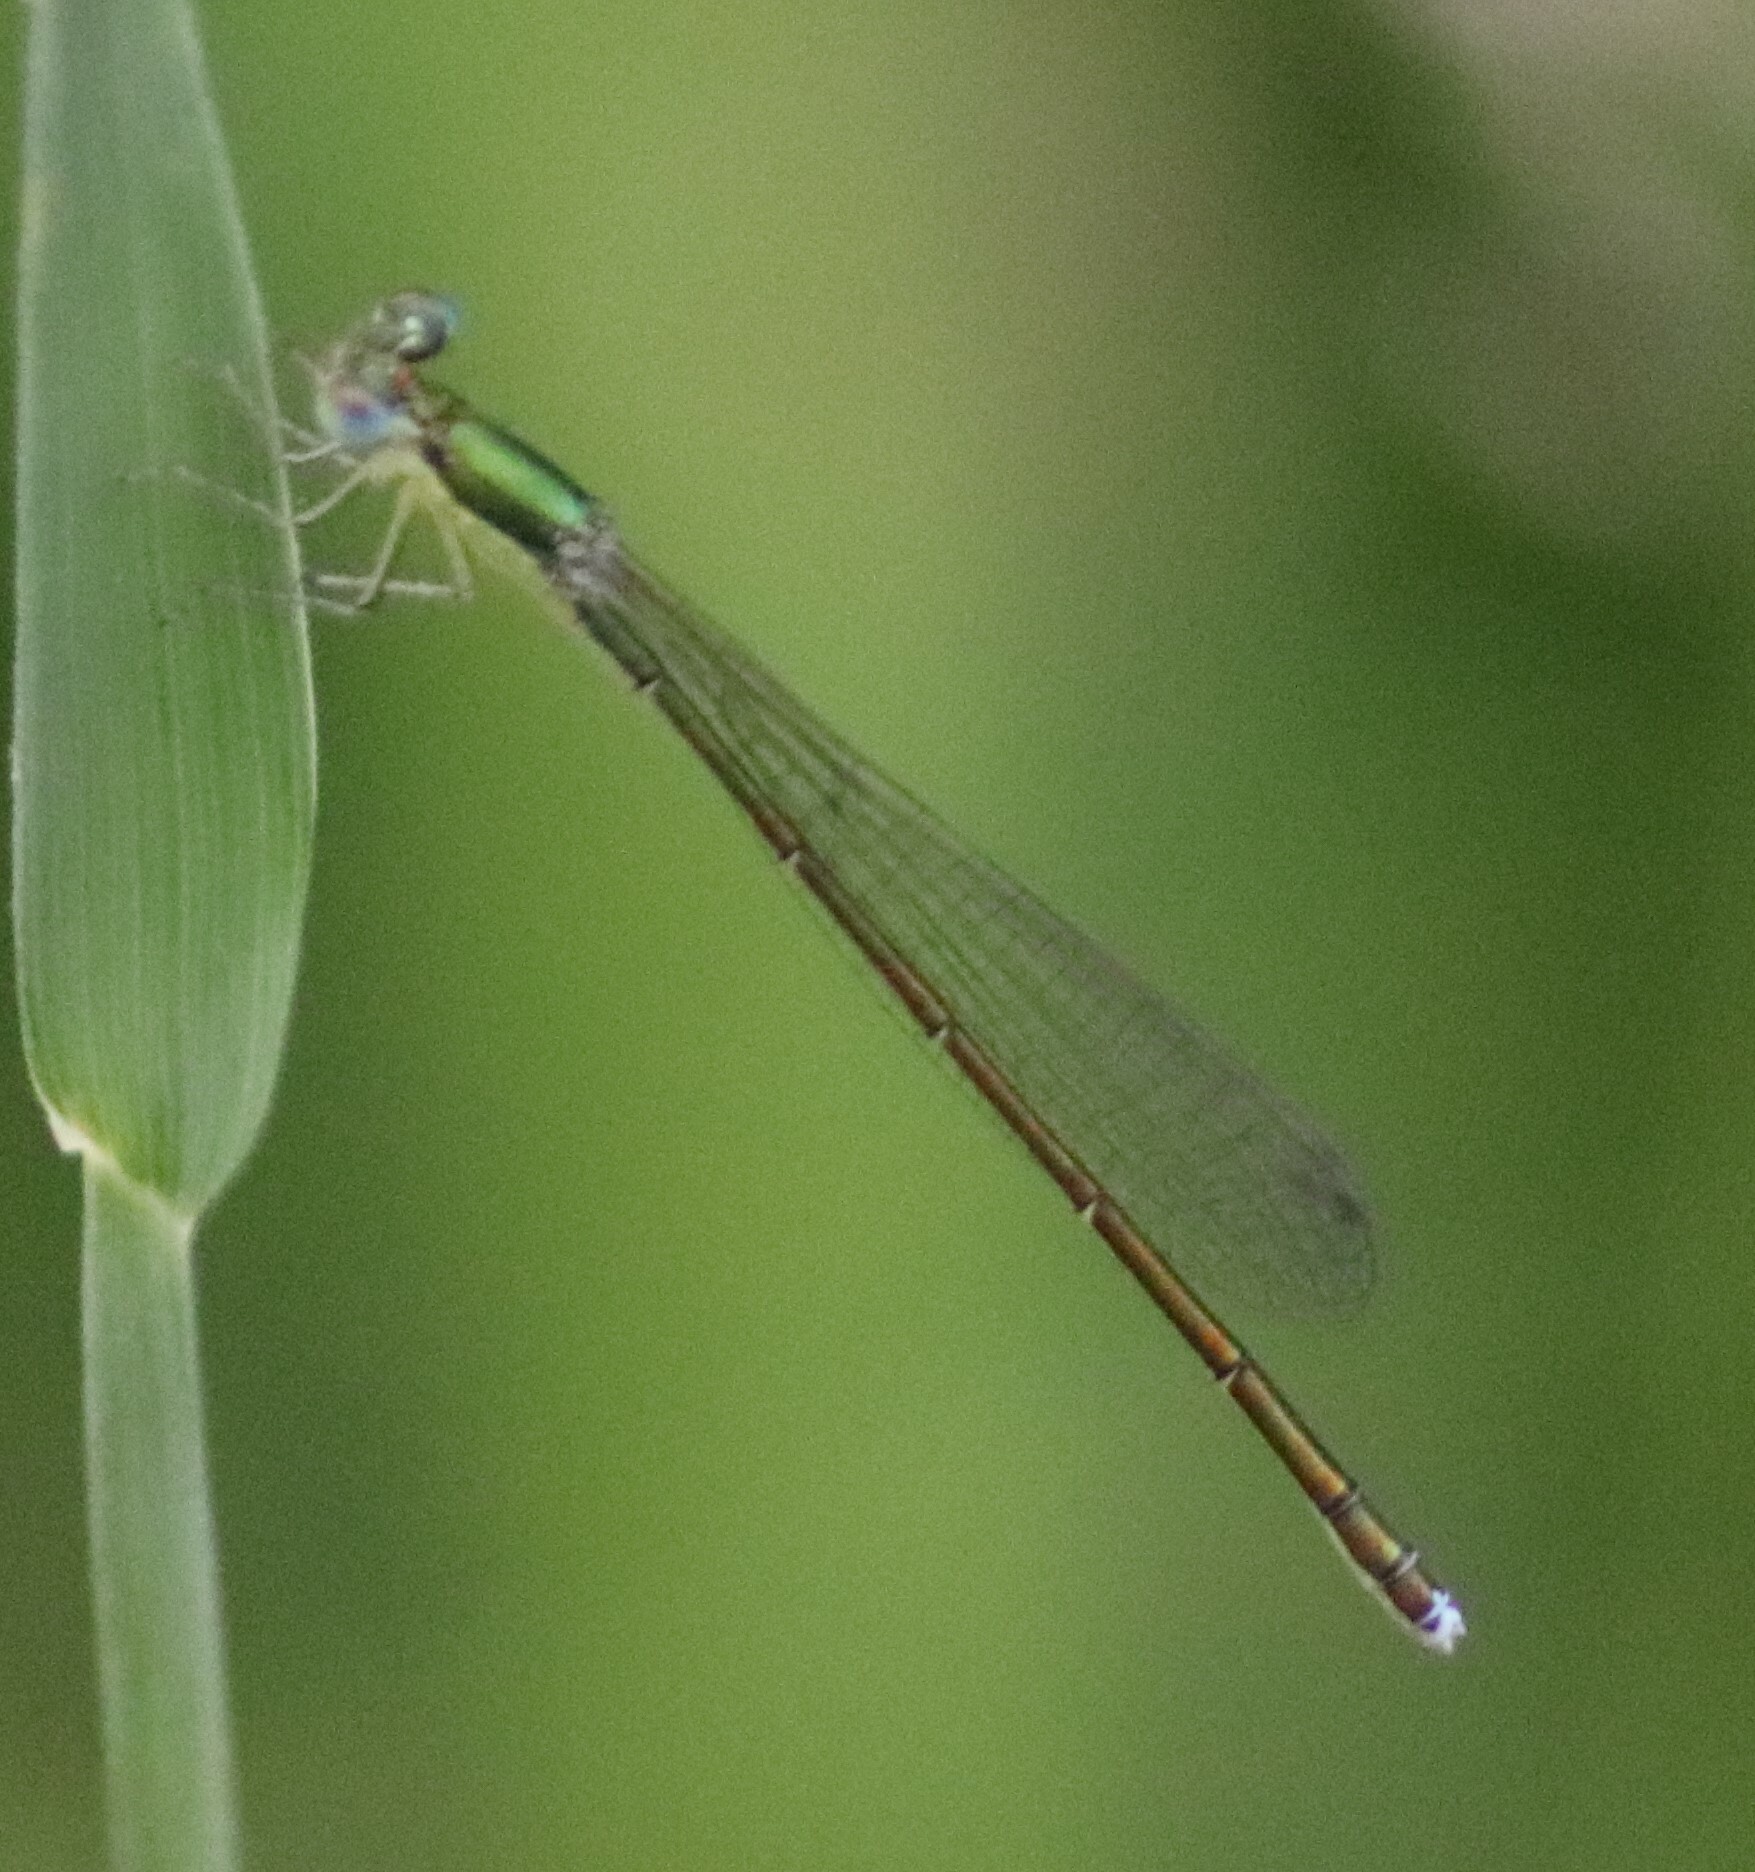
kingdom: Animalia
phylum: Arthropoda
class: Insecta
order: Odonata
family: Coenagrionidae
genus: Nehalennia
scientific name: Nehalennia irene
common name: Sedge sprite
